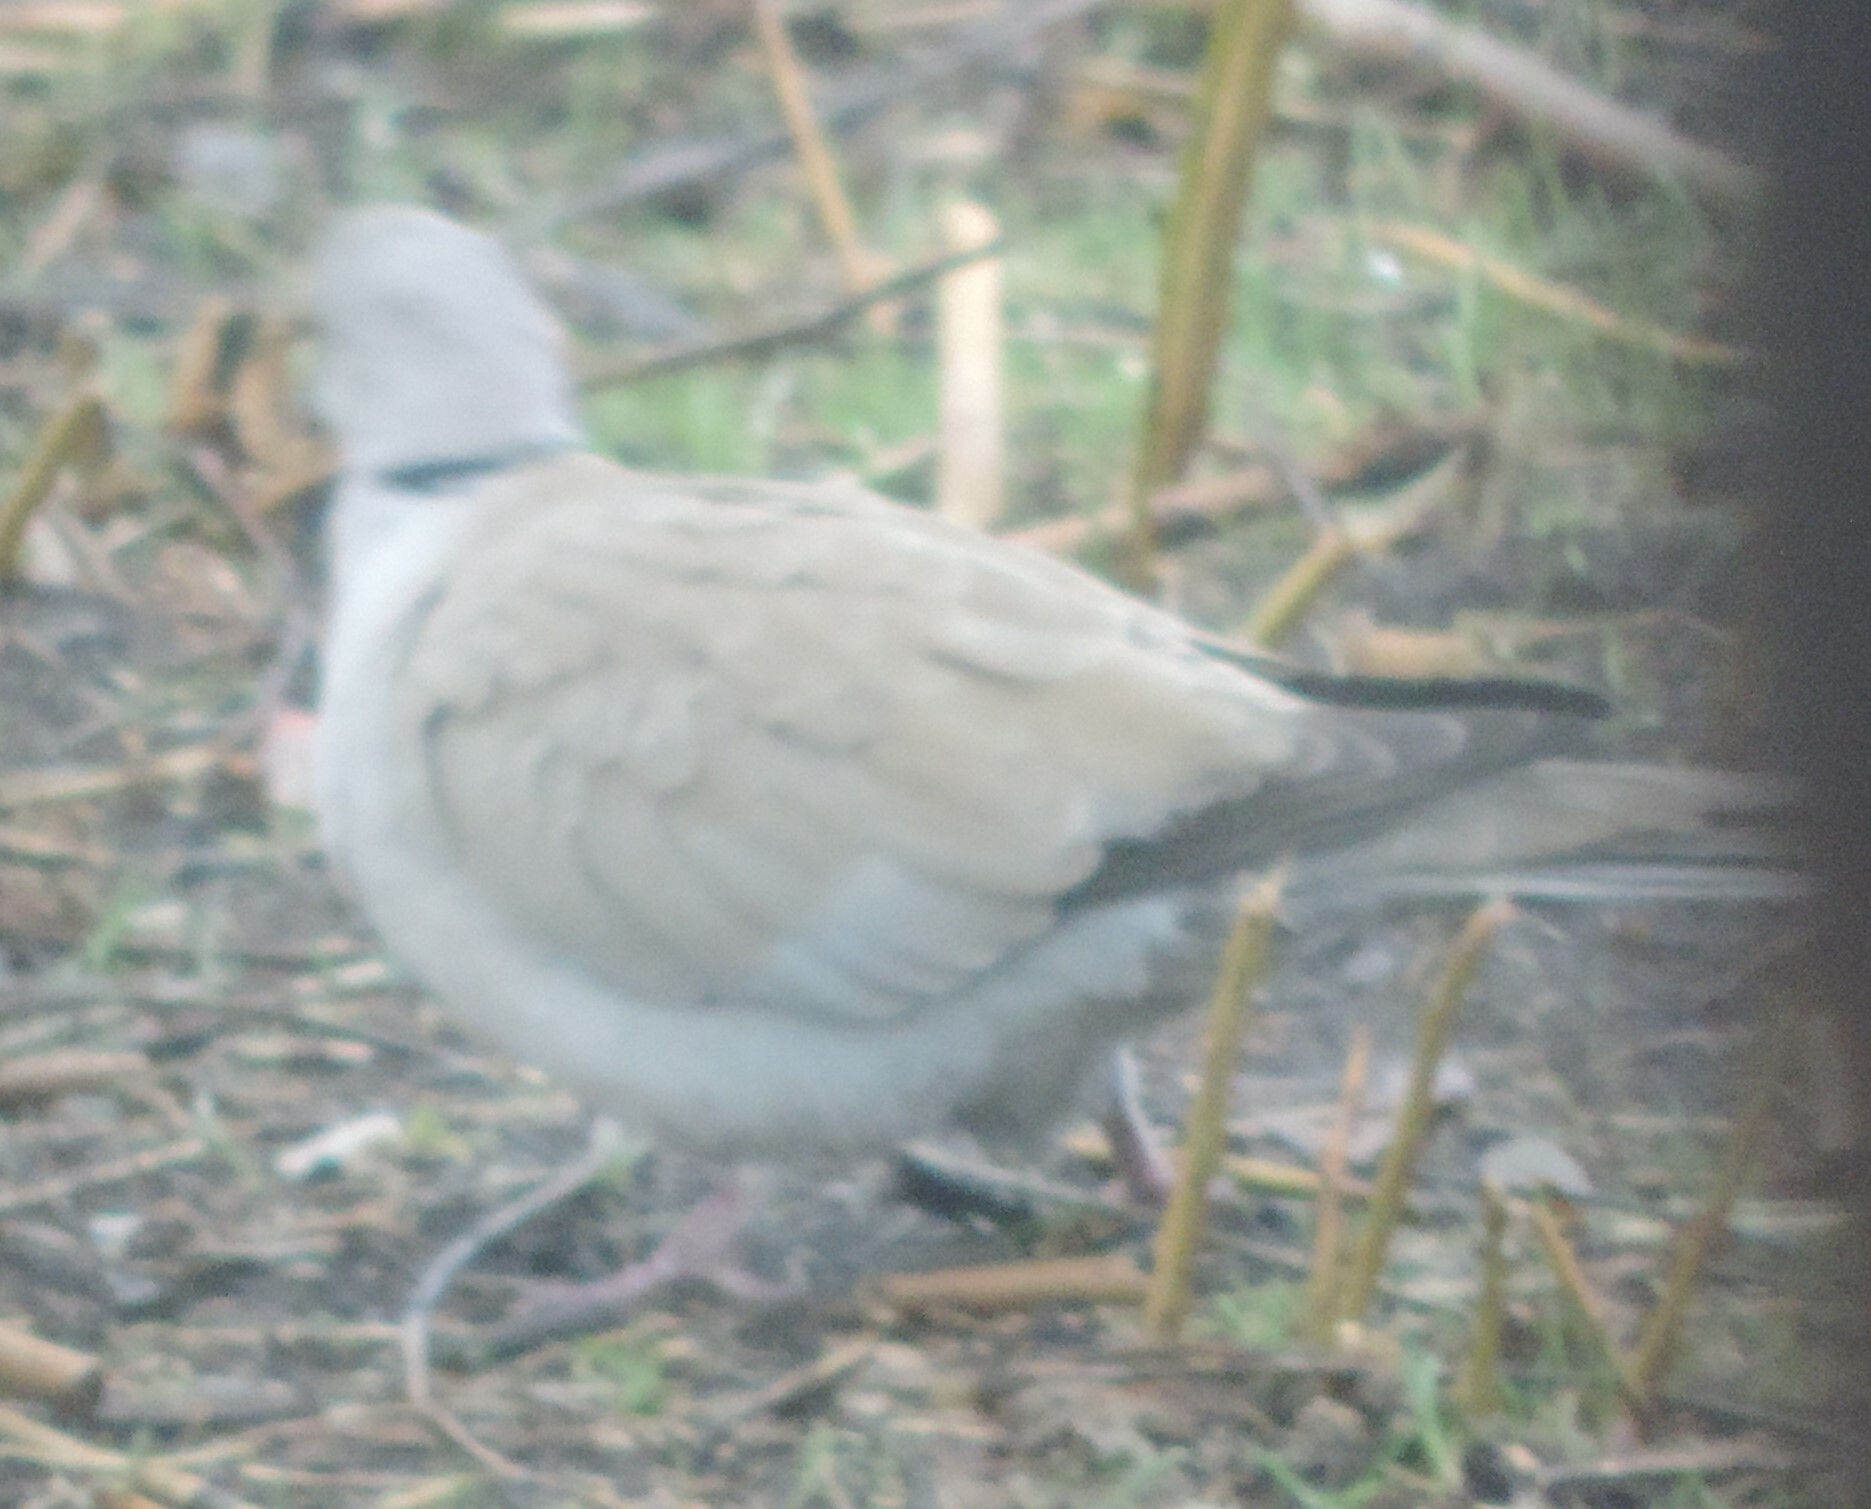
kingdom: Animalia
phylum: Chordata
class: Aves
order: Columbiformes
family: Columbidae
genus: Streptopelia
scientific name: Streptopelia decaocto
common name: Eurasian collared dove
